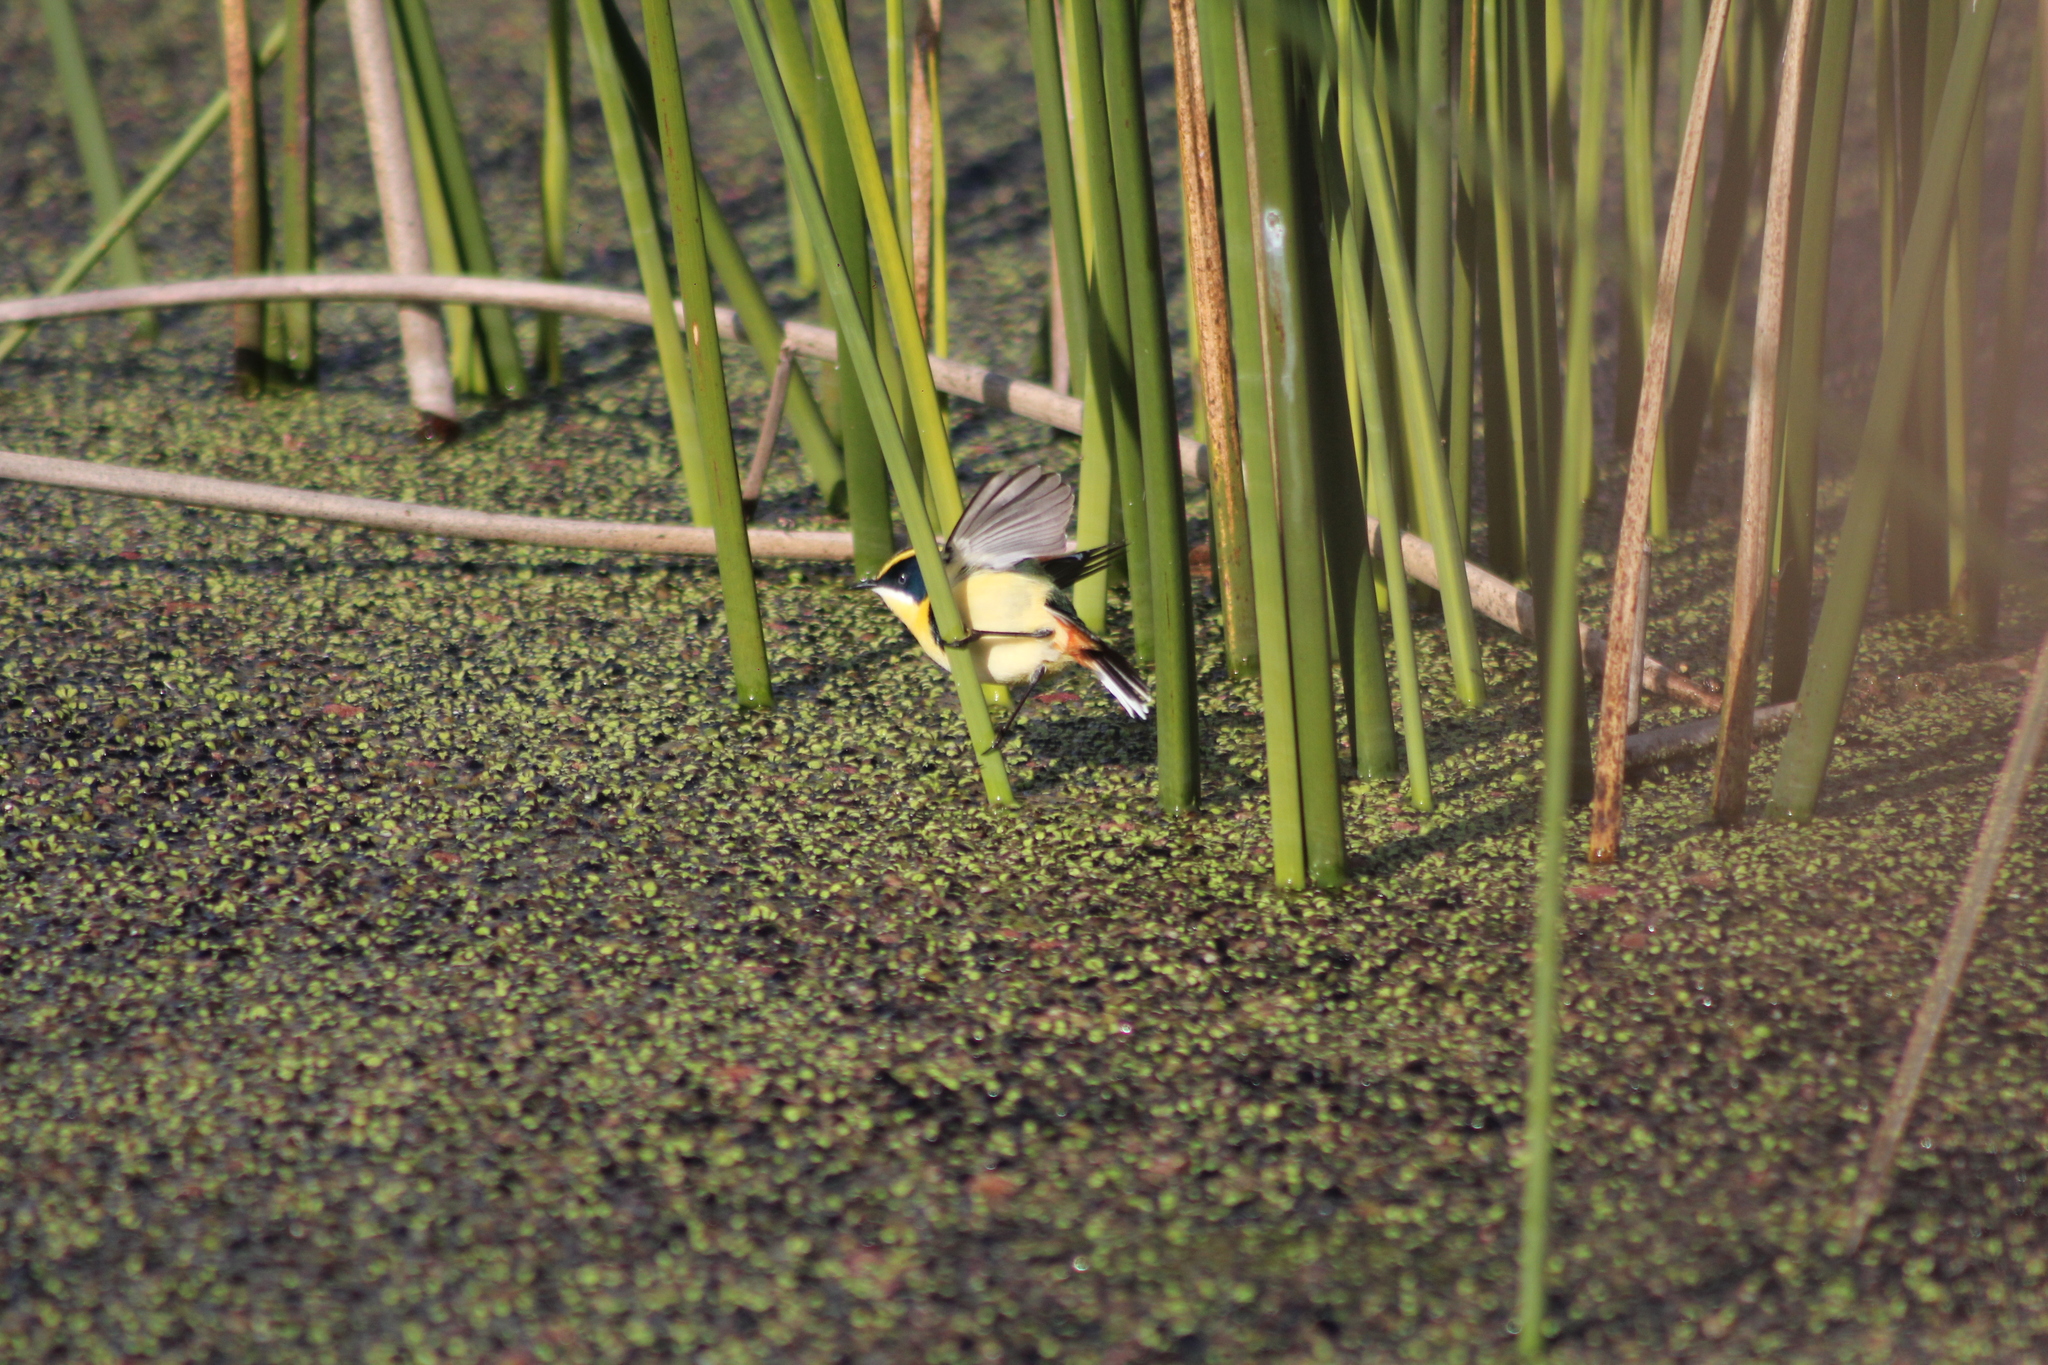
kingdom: Animalia
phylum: Chordata
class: Aves
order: Passeriformes
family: Tyrannidae
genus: Tachuris
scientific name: Tachuris rubrigastra
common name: Many-colored rush tyrant
